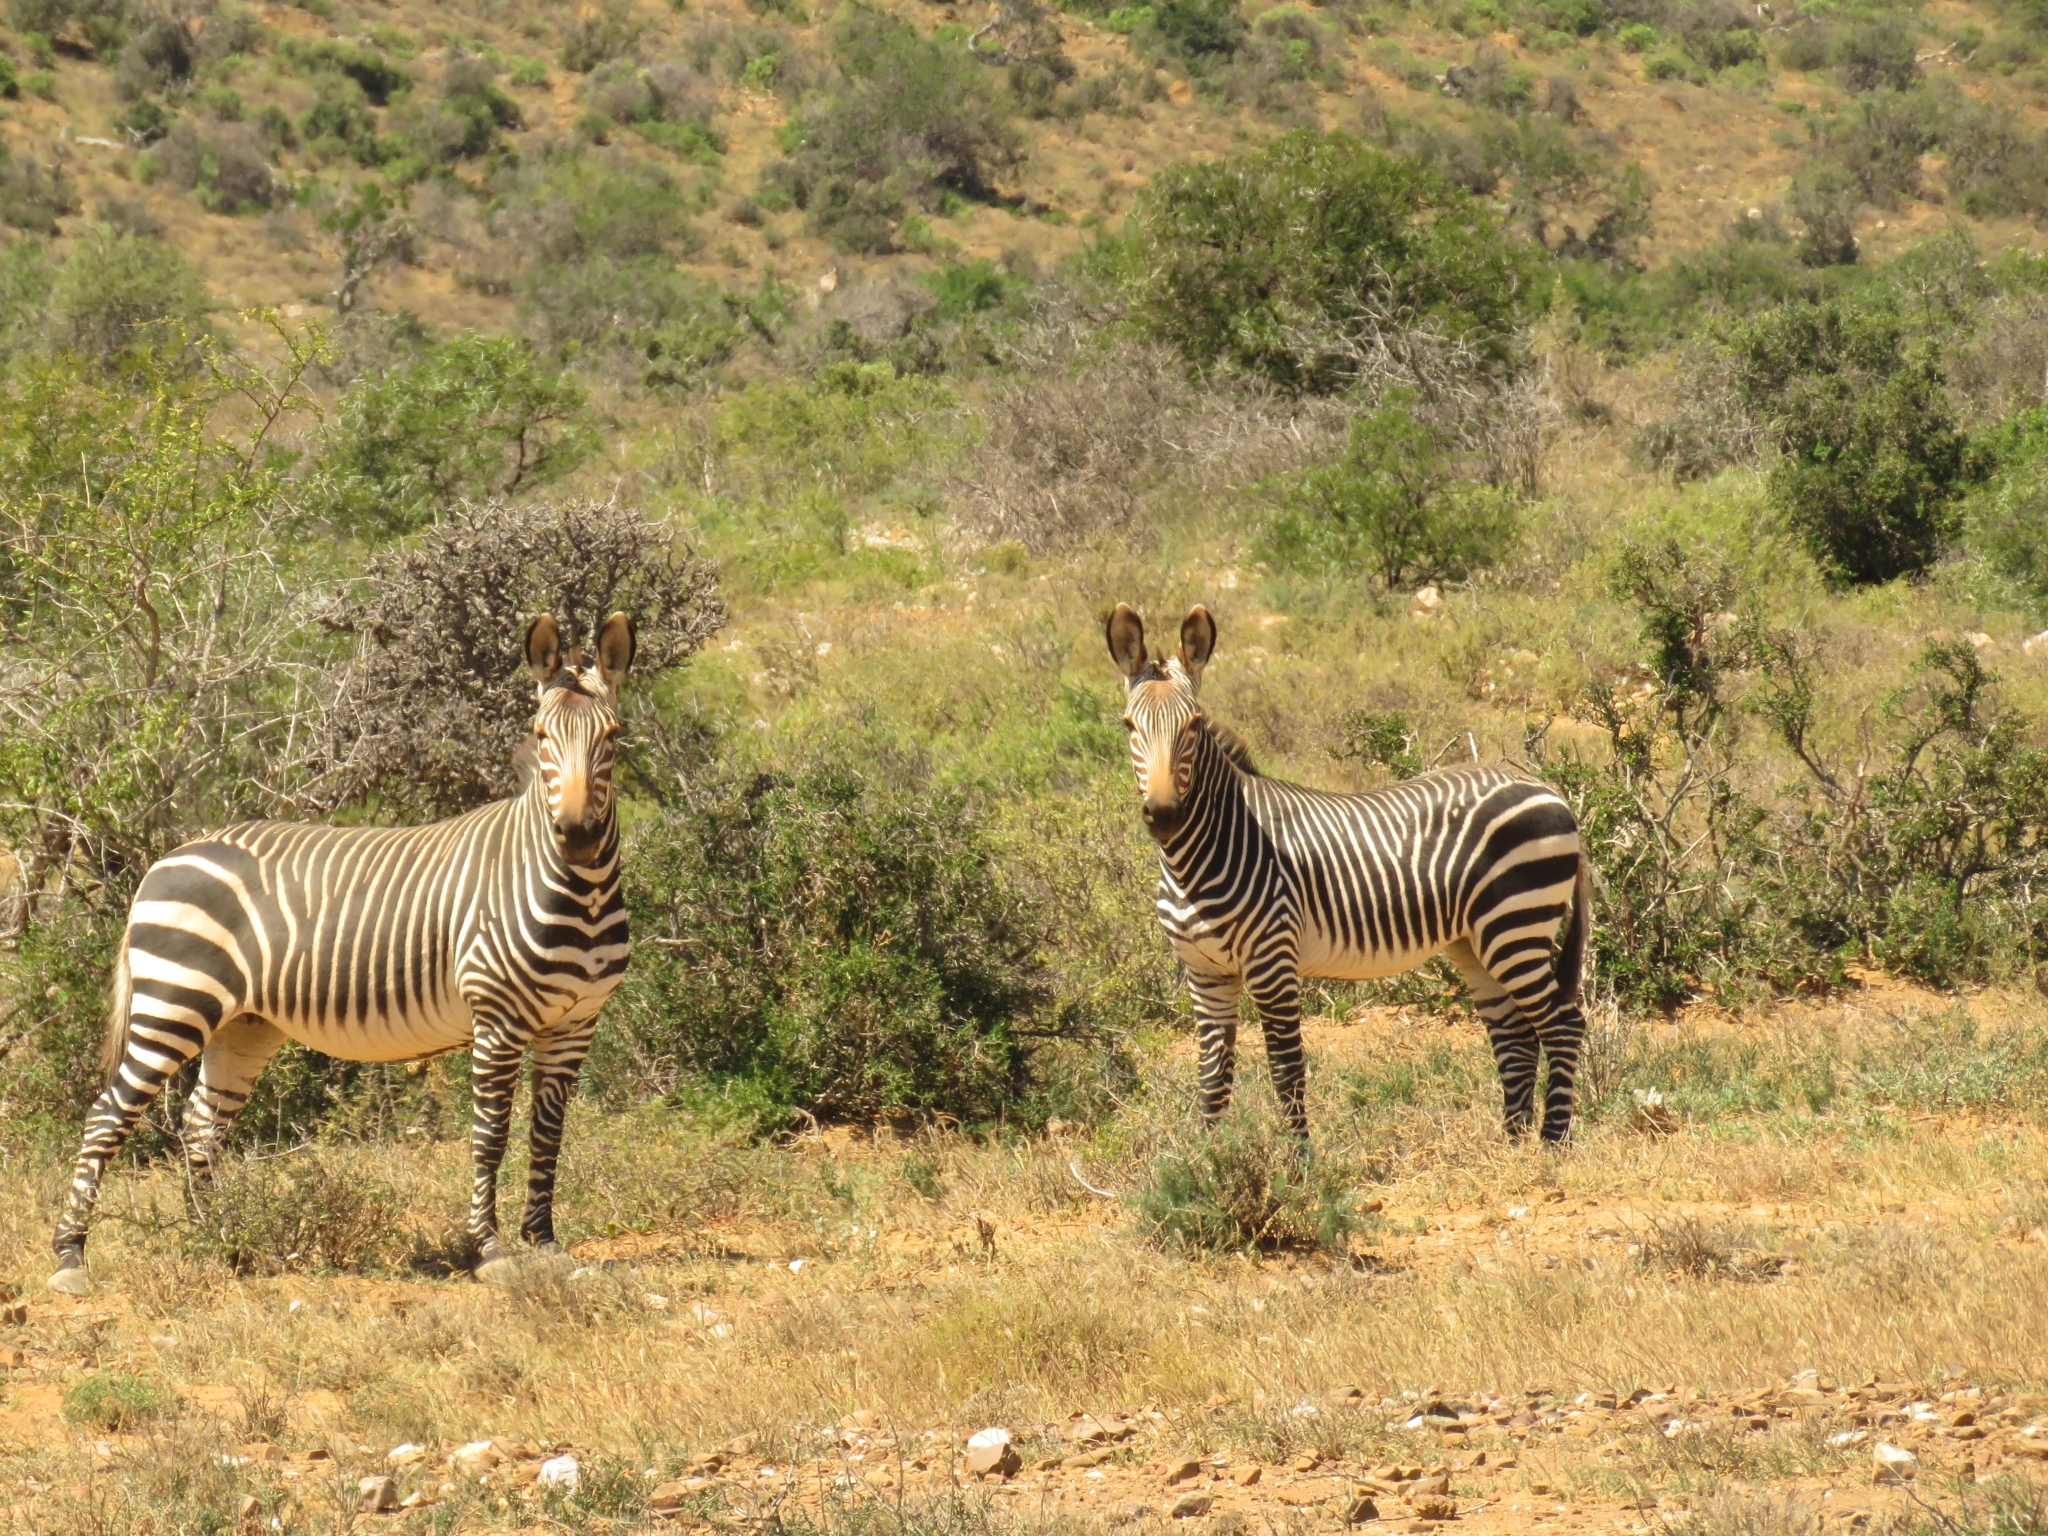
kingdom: Animalia
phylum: Chordata
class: Mammalia
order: Perissodactyla
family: Equidae
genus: Equus
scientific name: Equus zebra
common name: Mountain zebra
